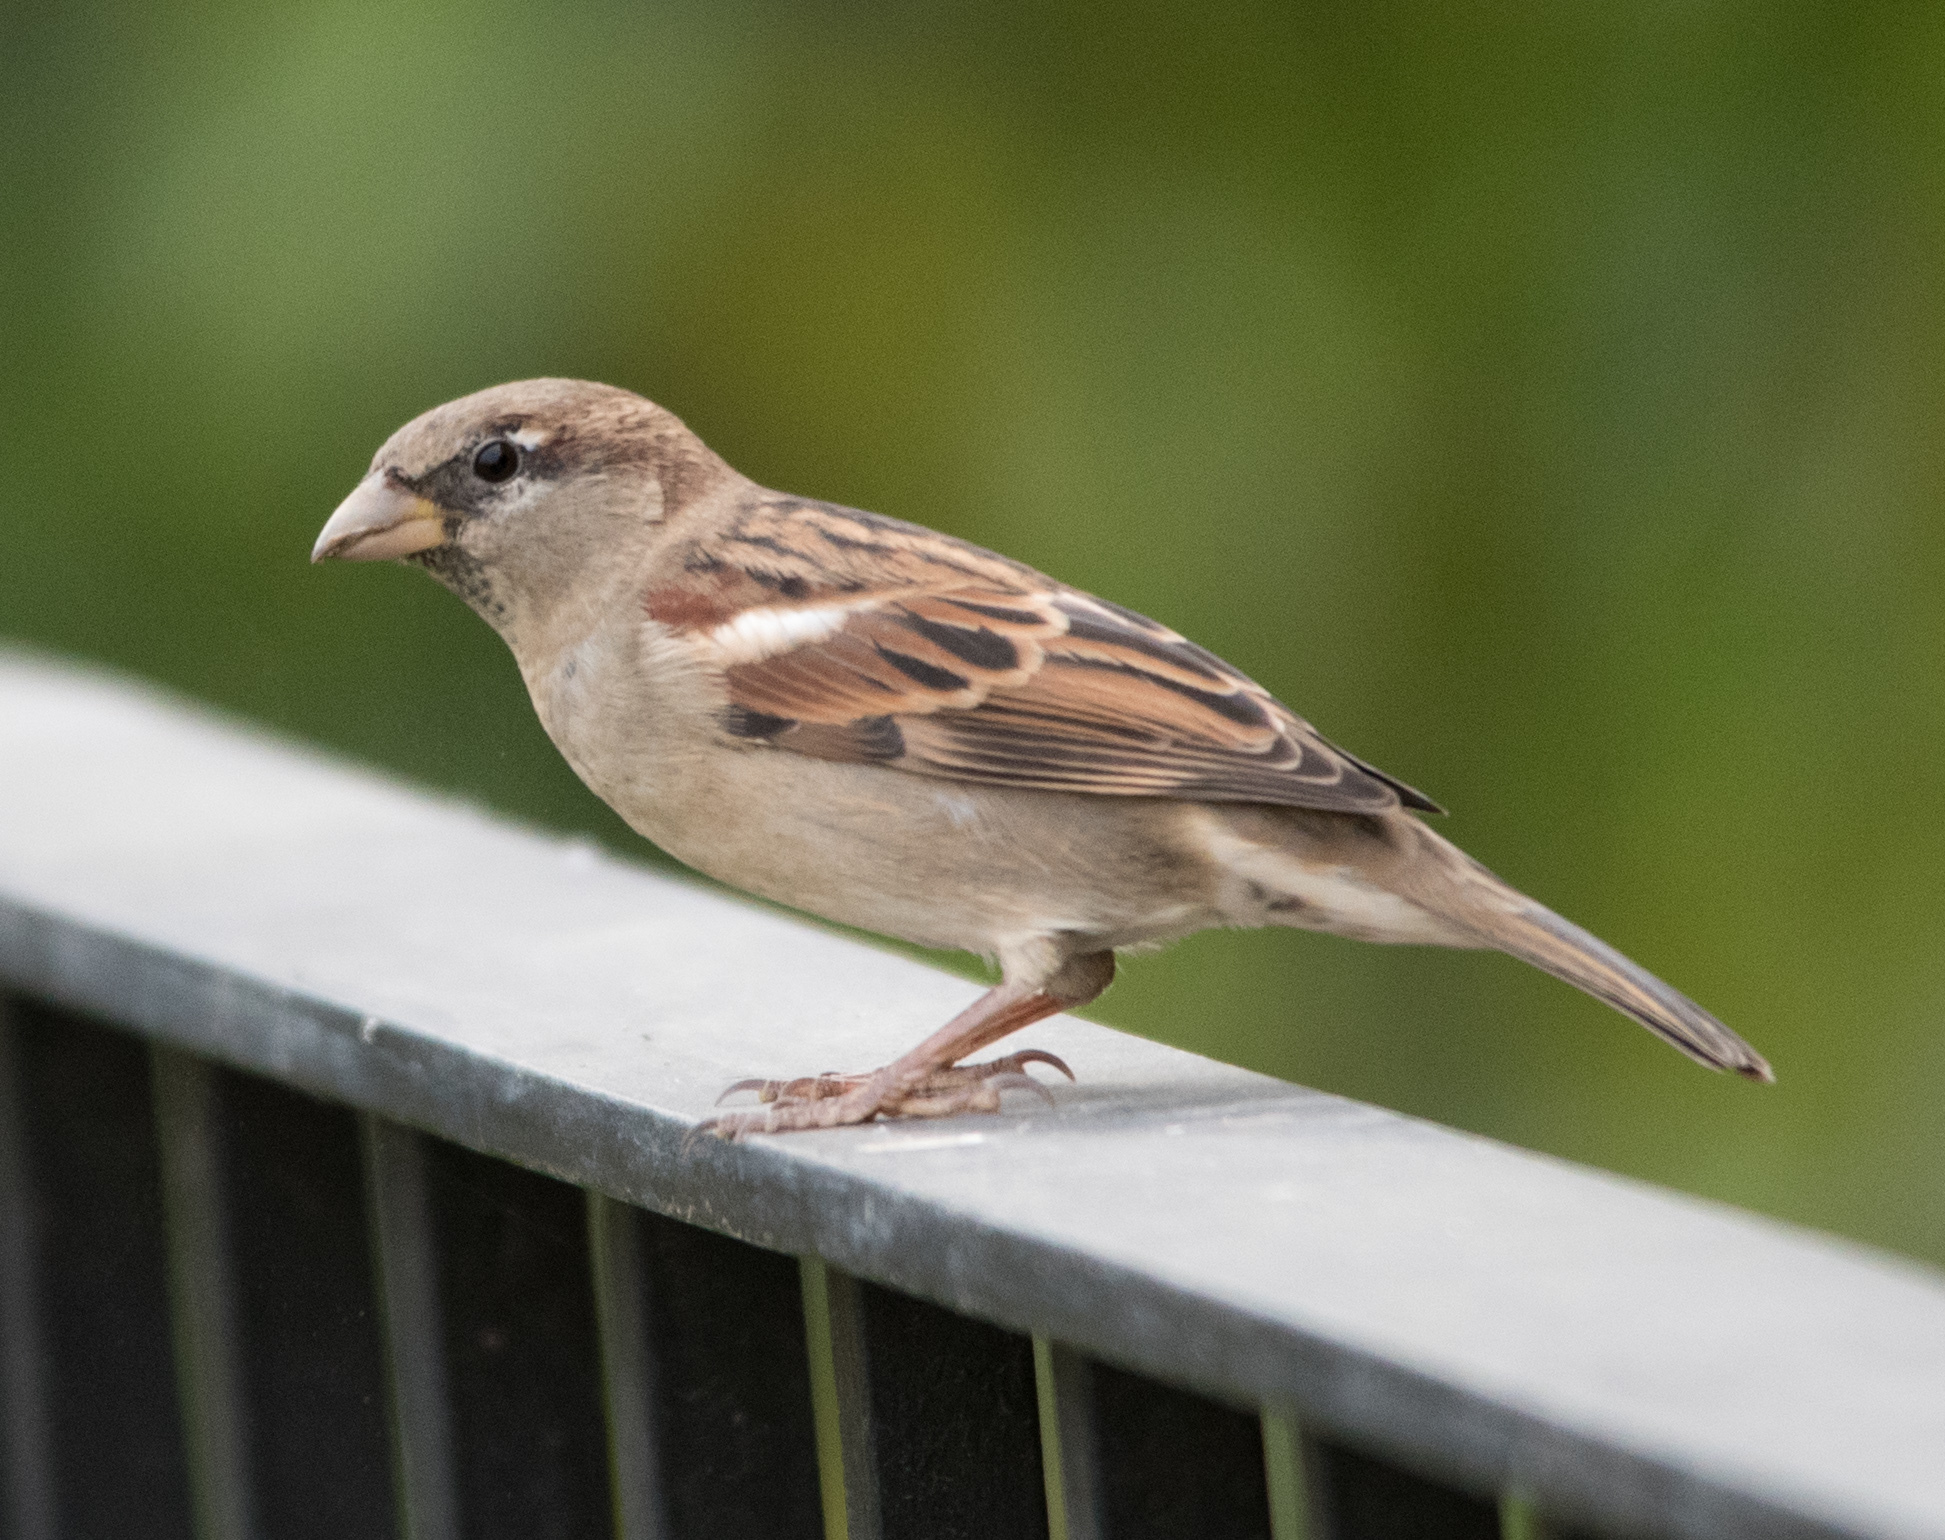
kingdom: Animalia
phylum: Chordata
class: Aves
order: Passeriformes
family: Passeridae
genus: Passer
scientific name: Passer domesticus
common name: House sparrow
